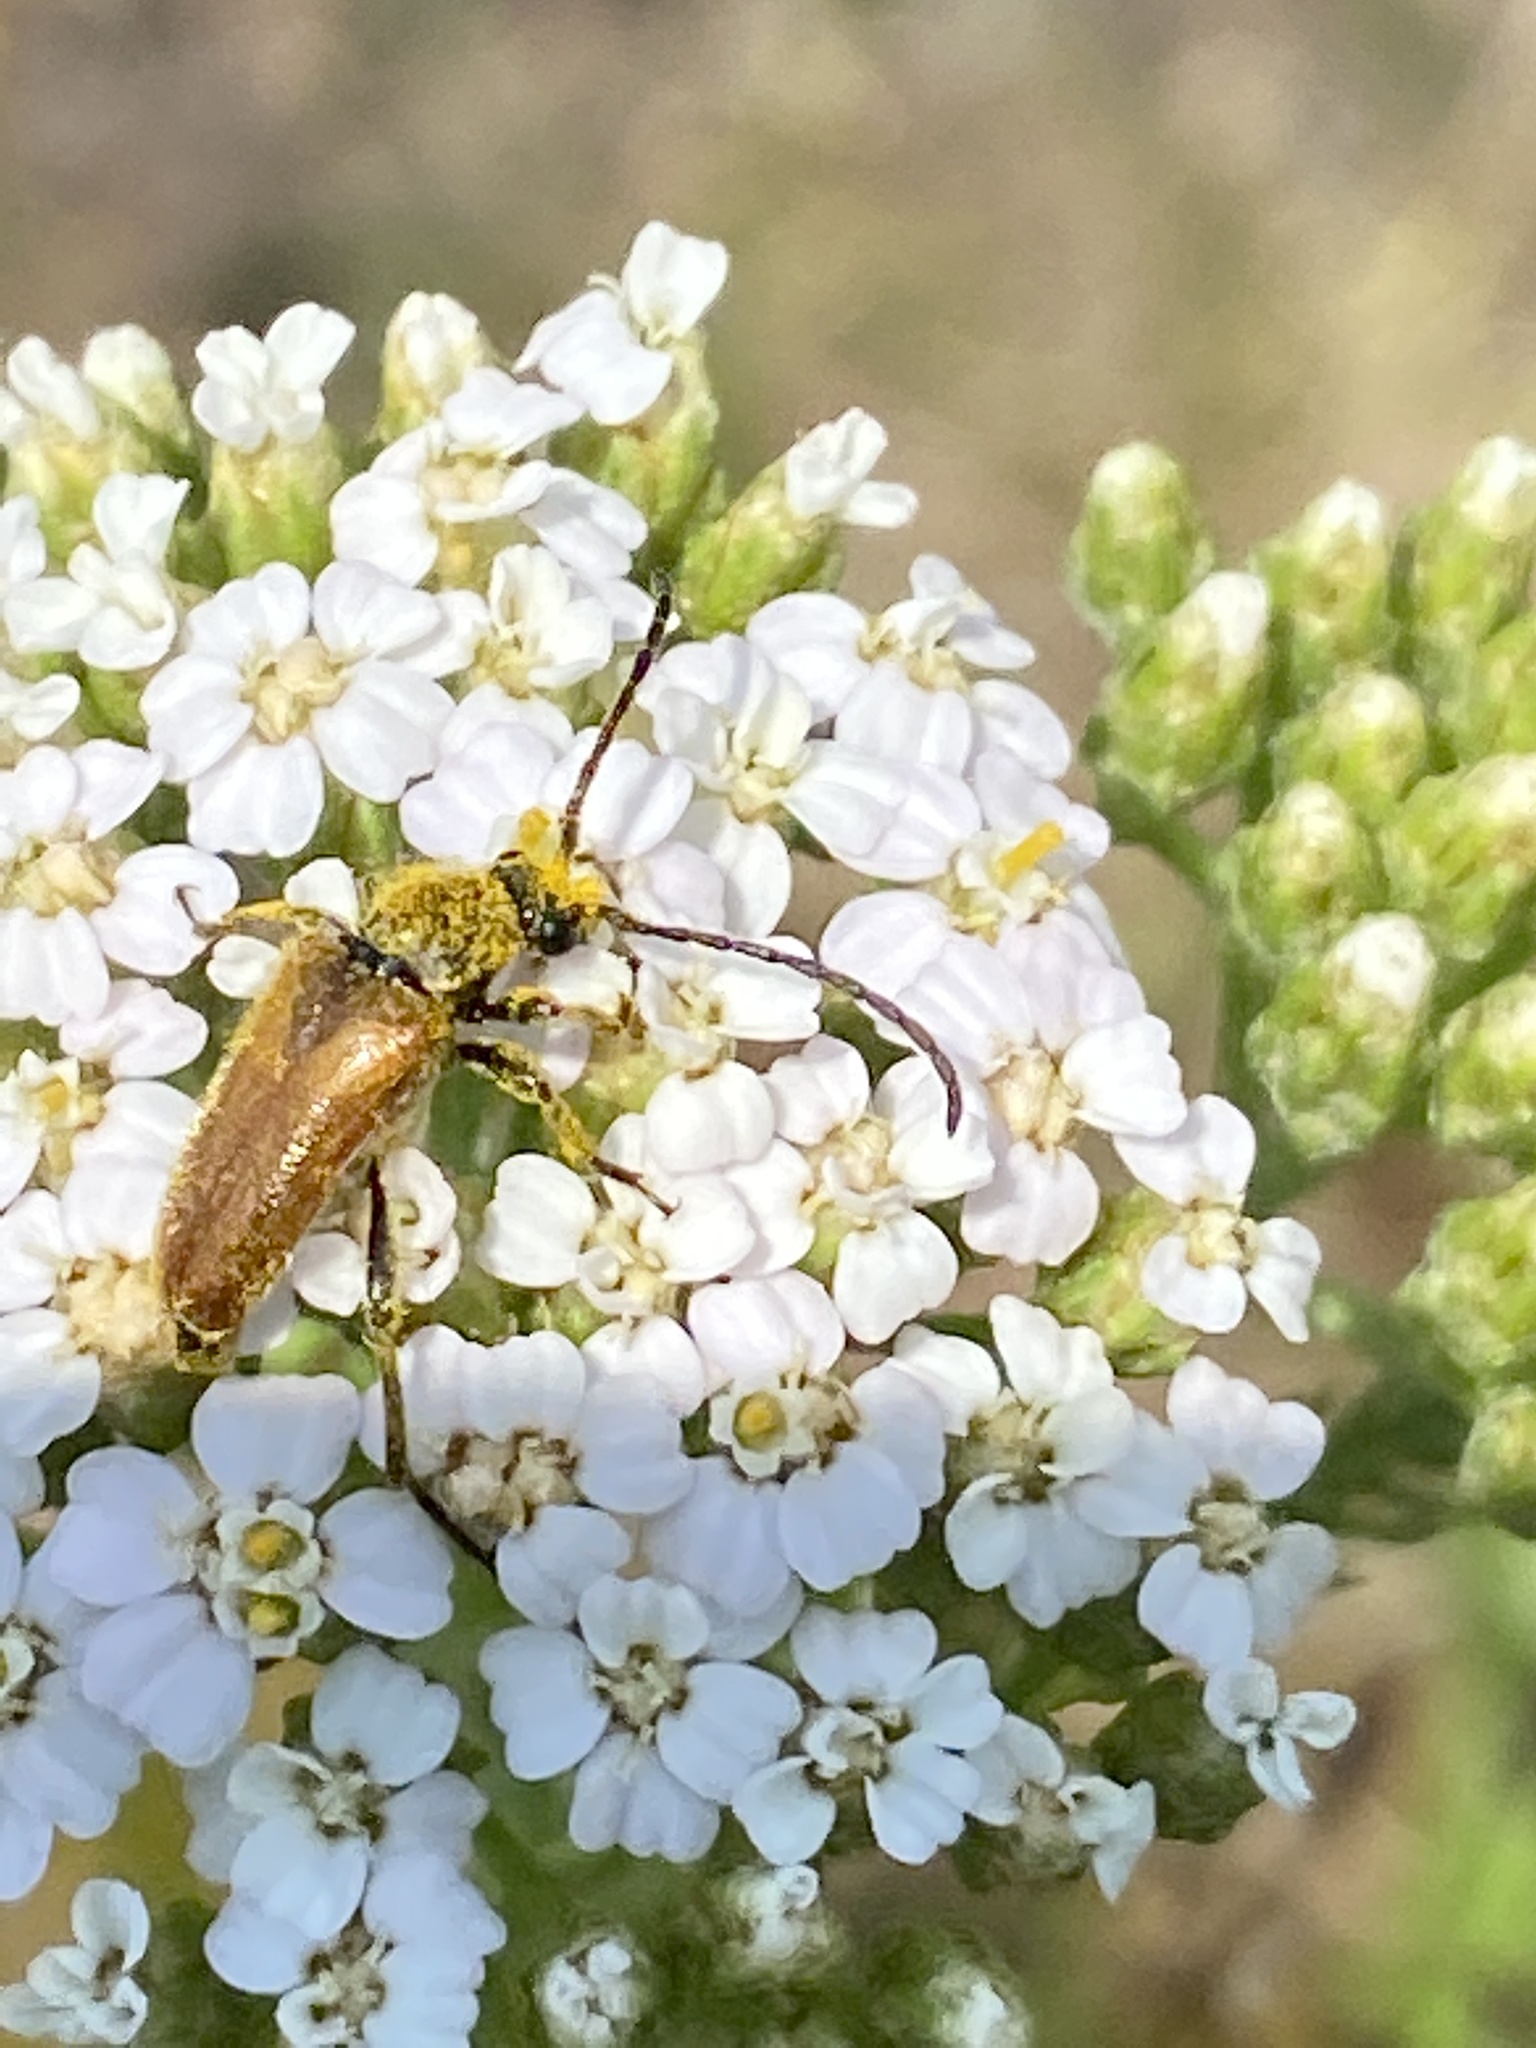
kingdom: Animalia
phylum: Arthropoda
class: Insecta
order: Coleoptera
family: Cerambycidae
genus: Pseudovadonia
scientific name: Pseudovadonia livida
